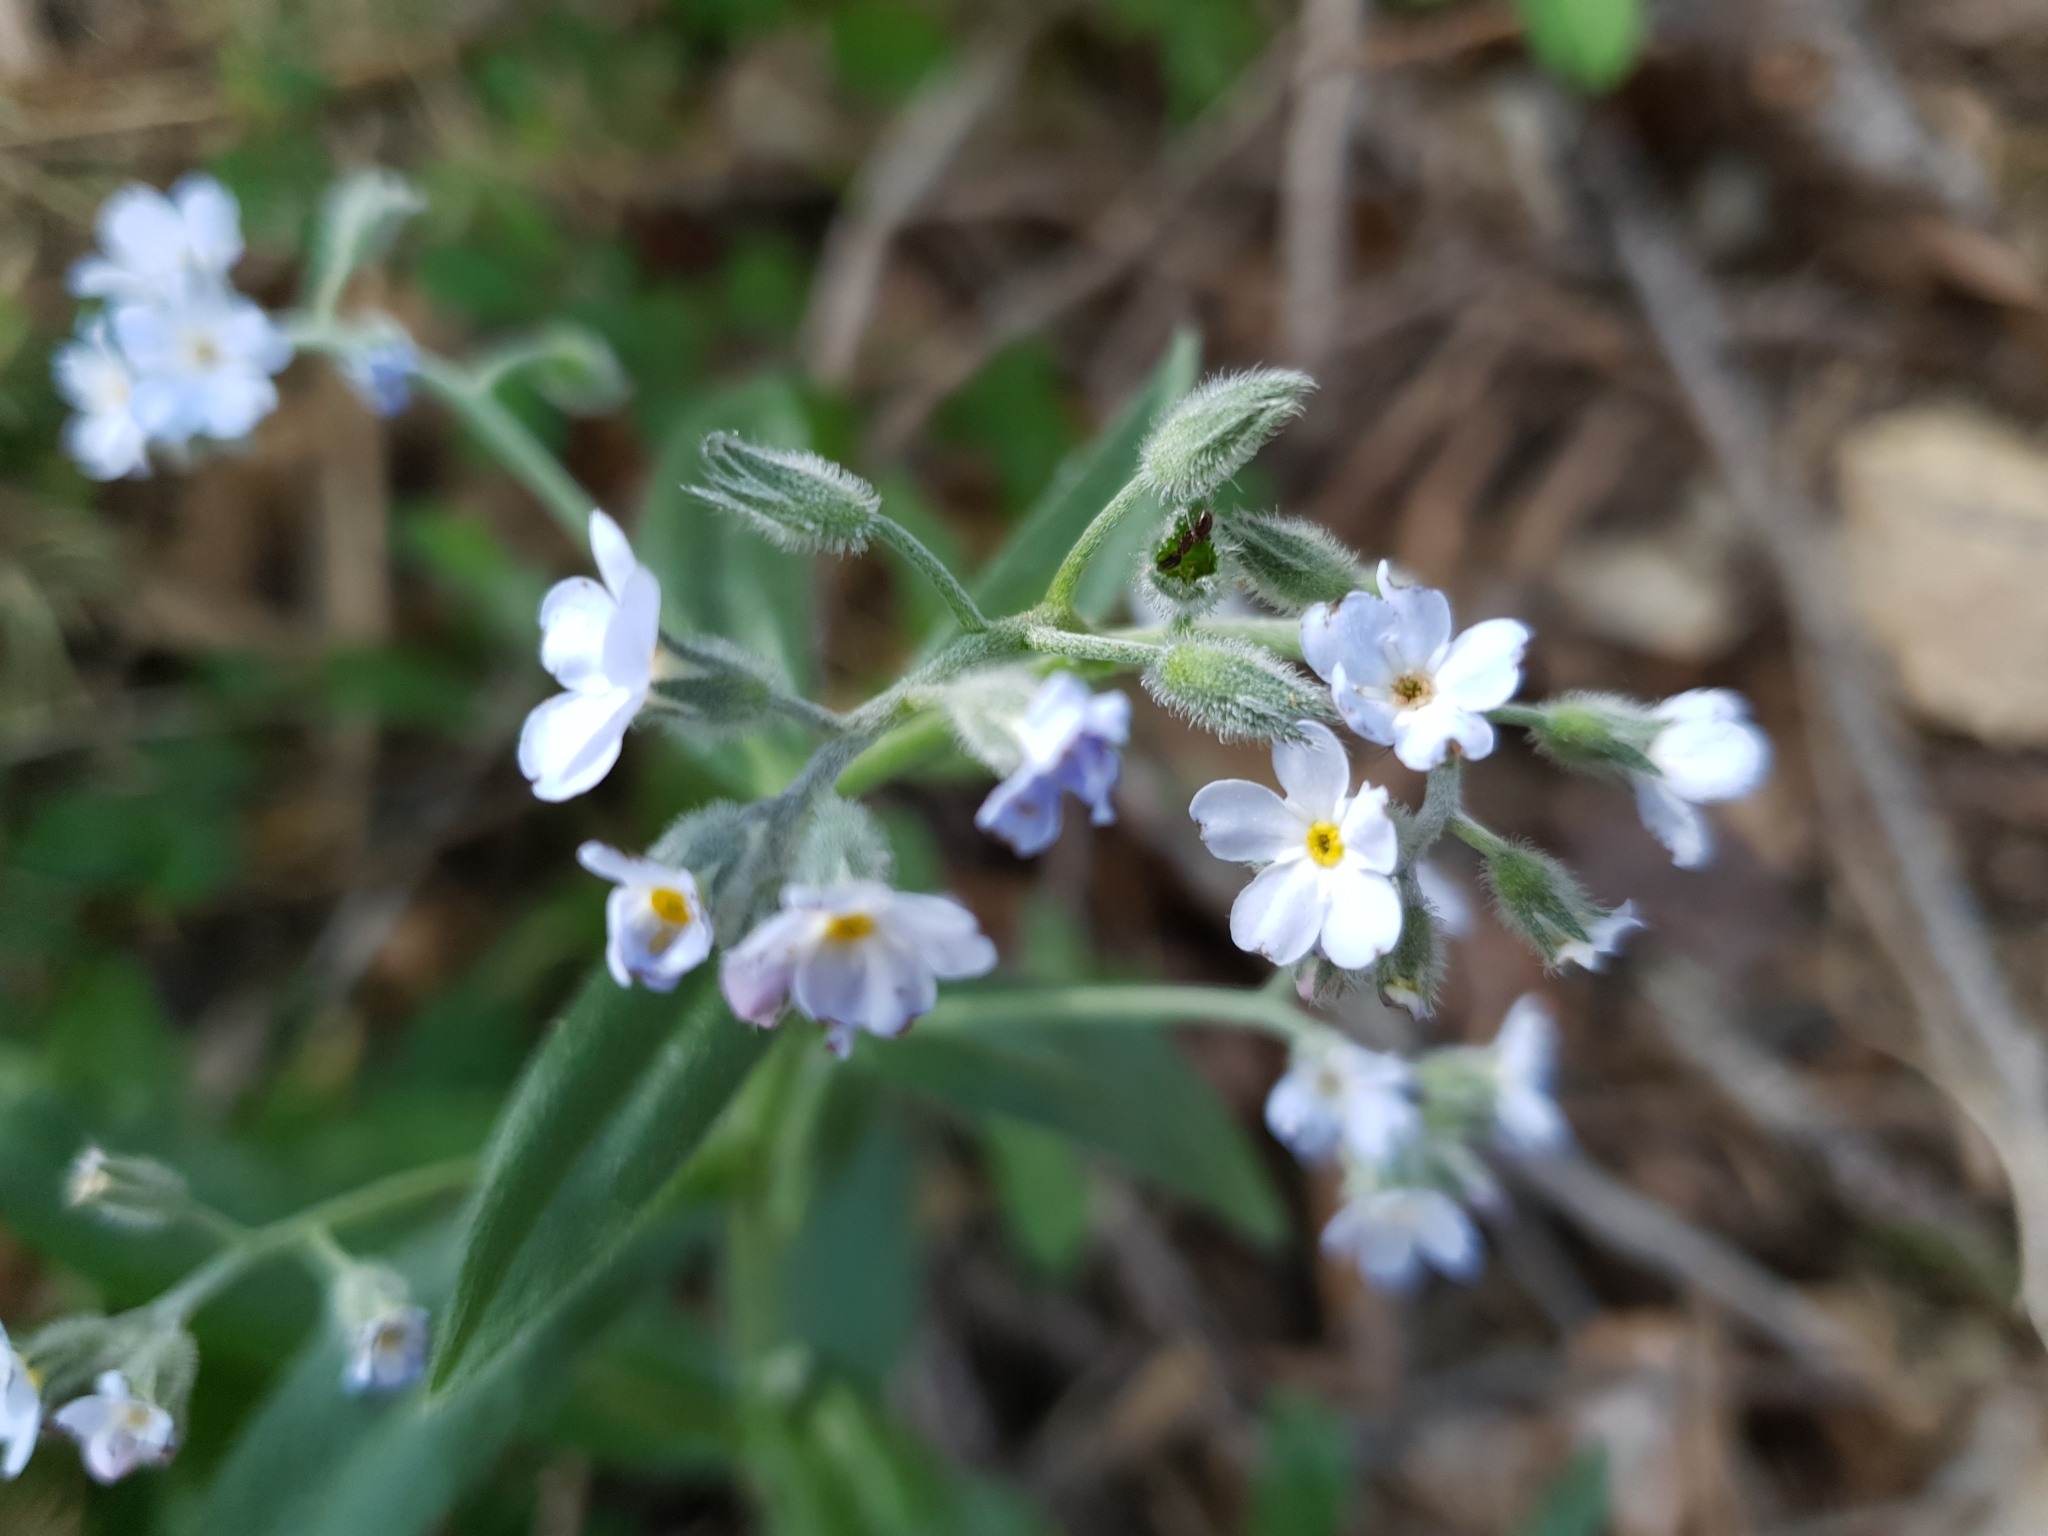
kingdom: Plantae
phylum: Tracheophyta
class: Magnoliopsida
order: Boraginales
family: Boraginaceae
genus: Myosotis
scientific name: Myosotis speciosa
